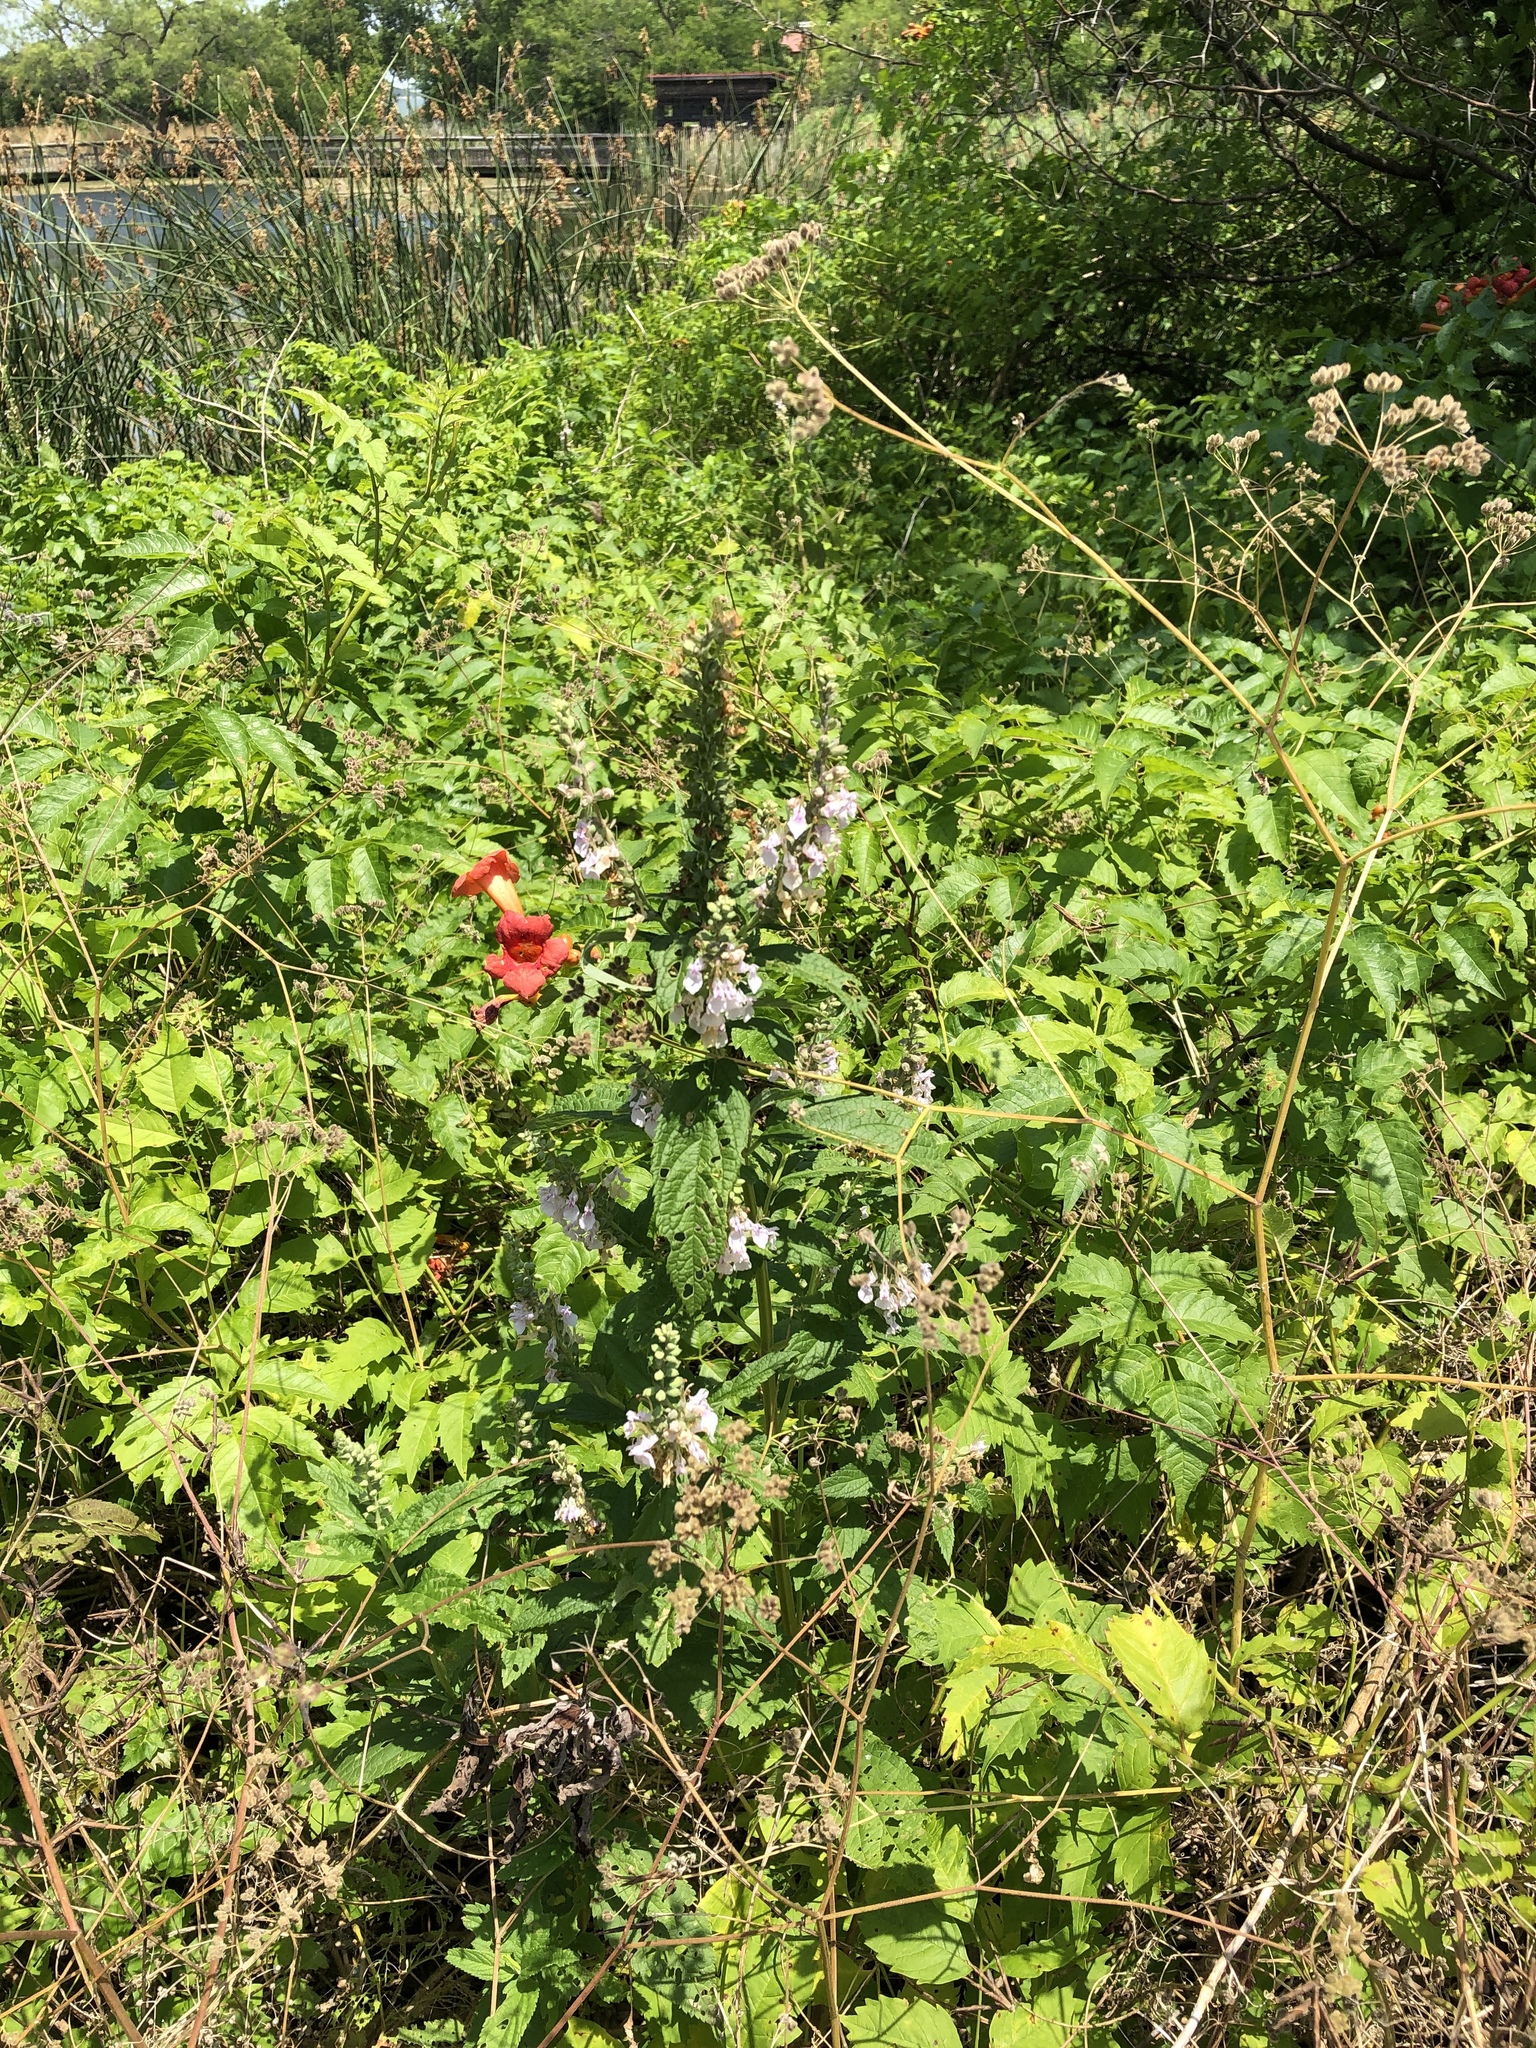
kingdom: Plantae
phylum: Tracheophyta
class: Magnoliopsida
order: Lamiales
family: Lamiaceae
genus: Teucrium
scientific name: Teucrium canadense
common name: American germander
